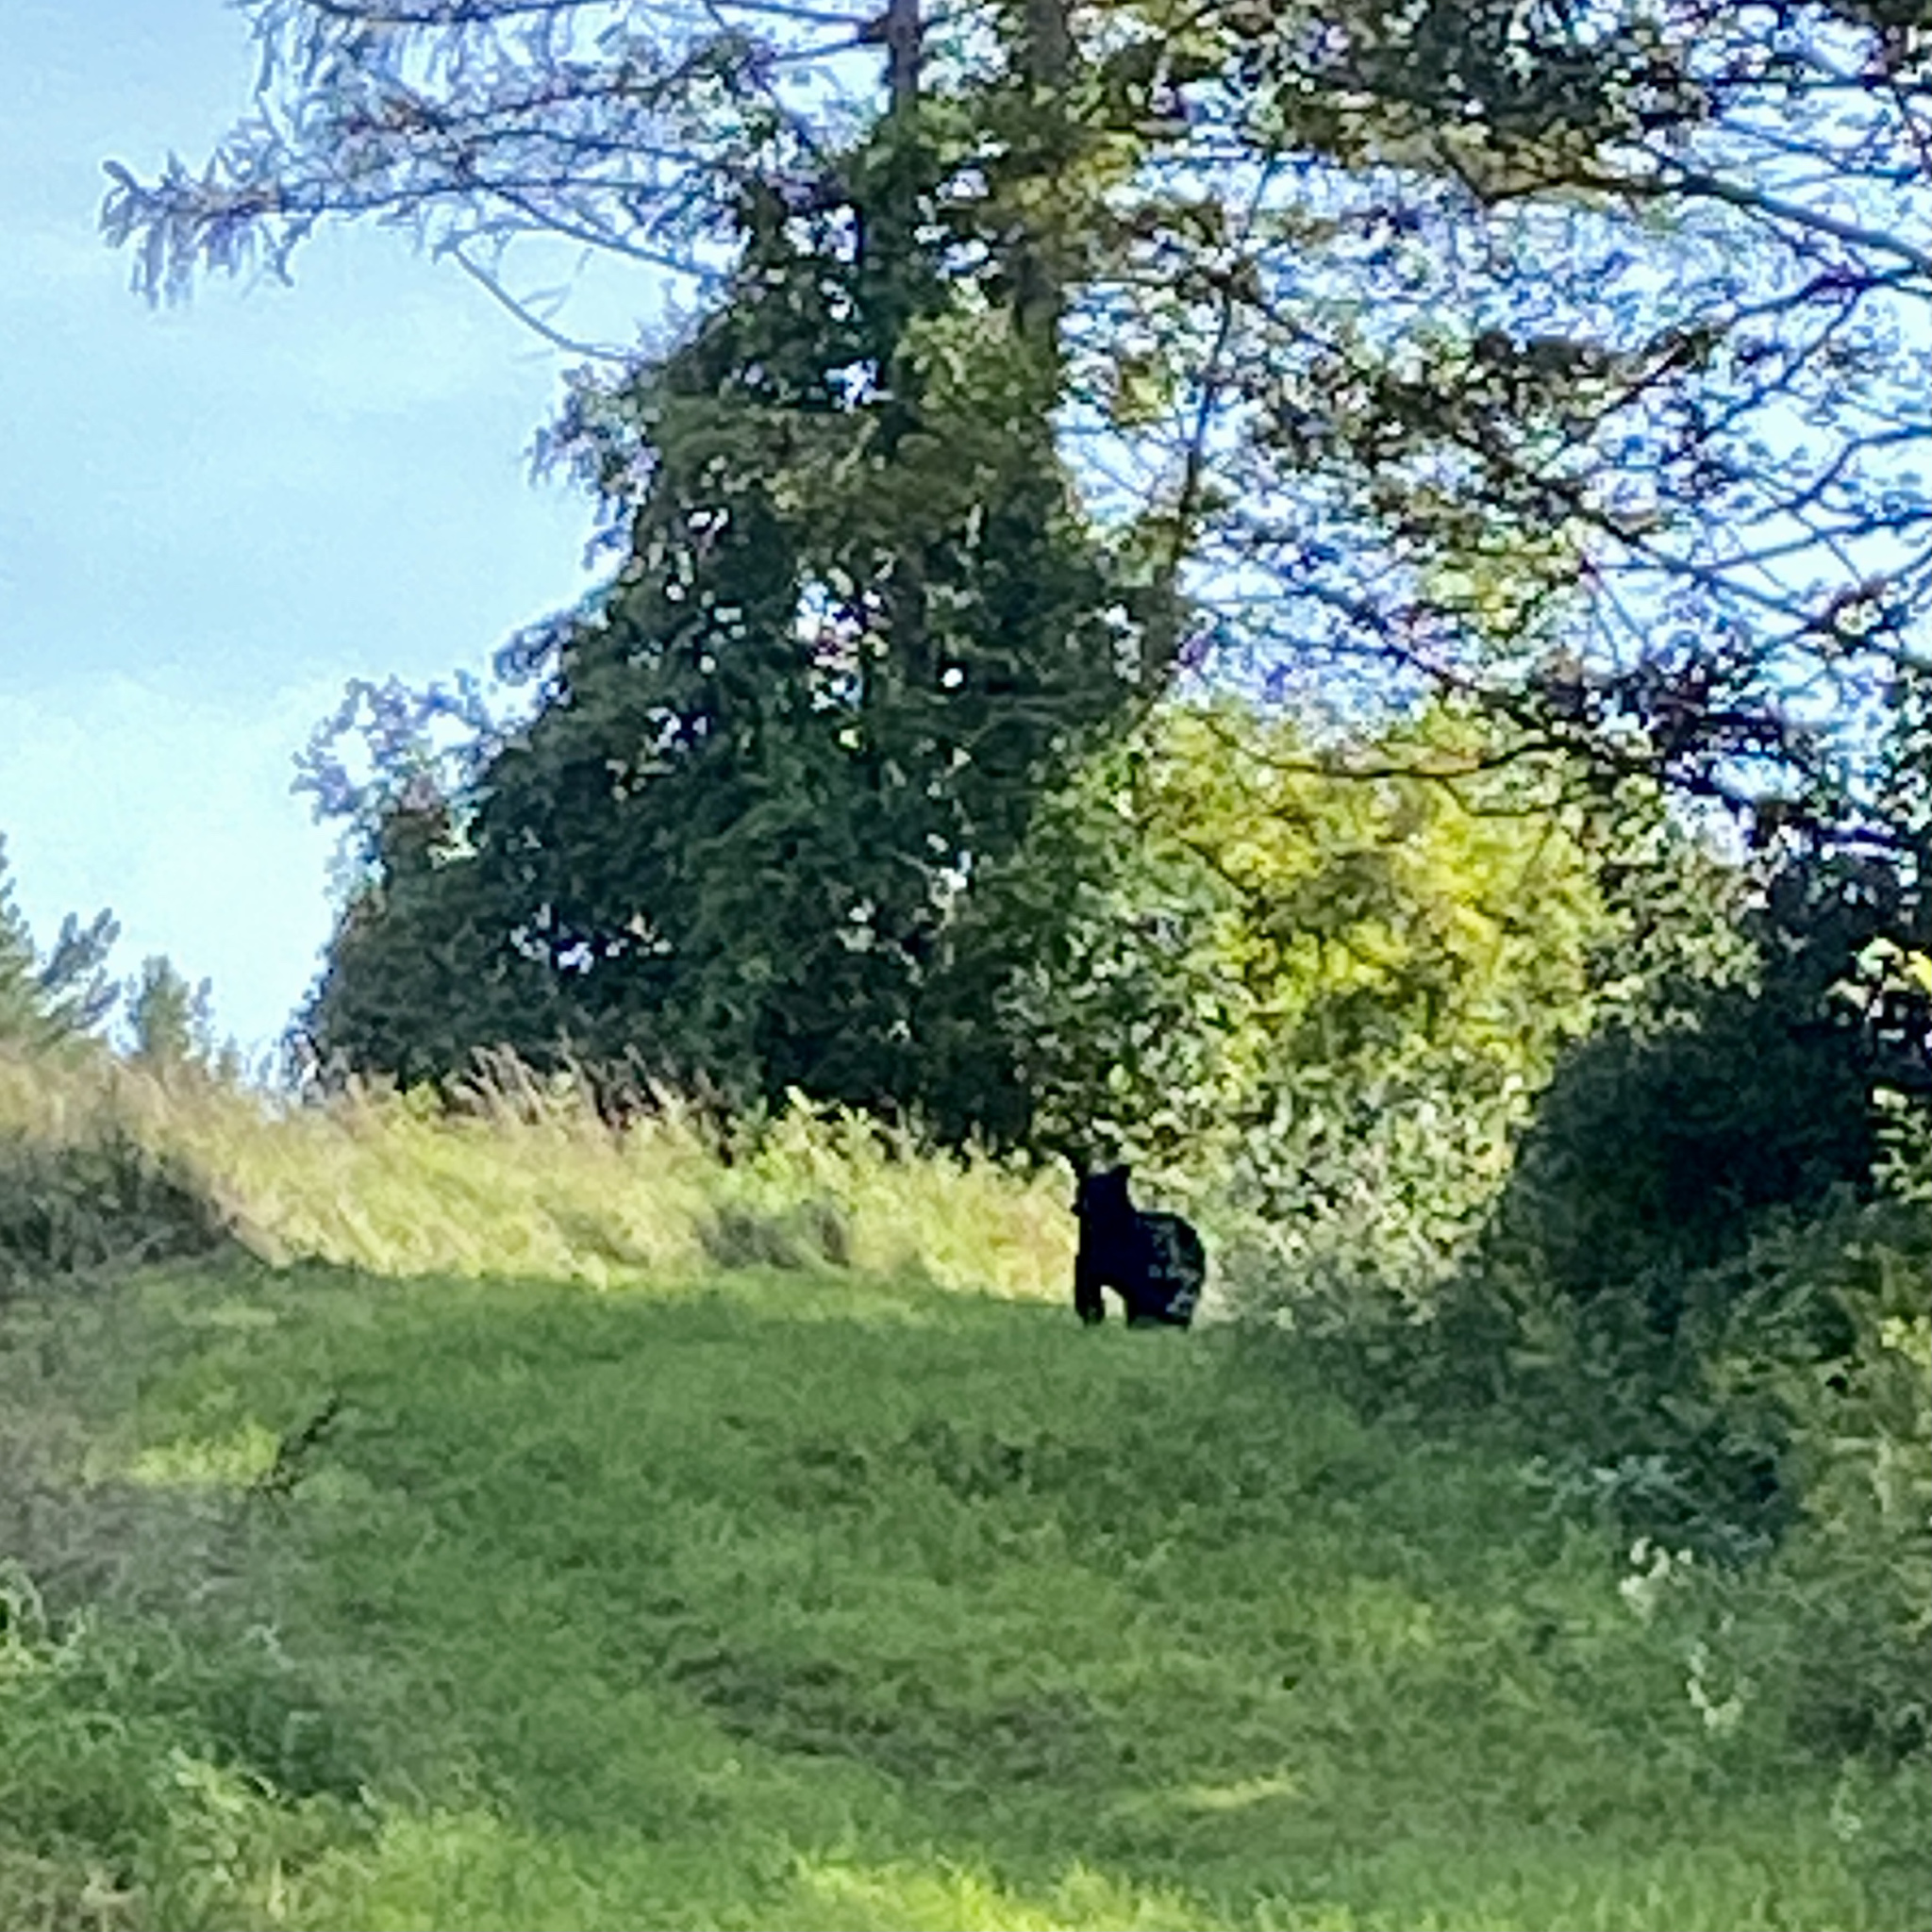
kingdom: Animalia
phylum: Chordata
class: Mammalia
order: Carnivora
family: Ursidae
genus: Ursus
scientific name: Ursus americanus
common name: American black bear
